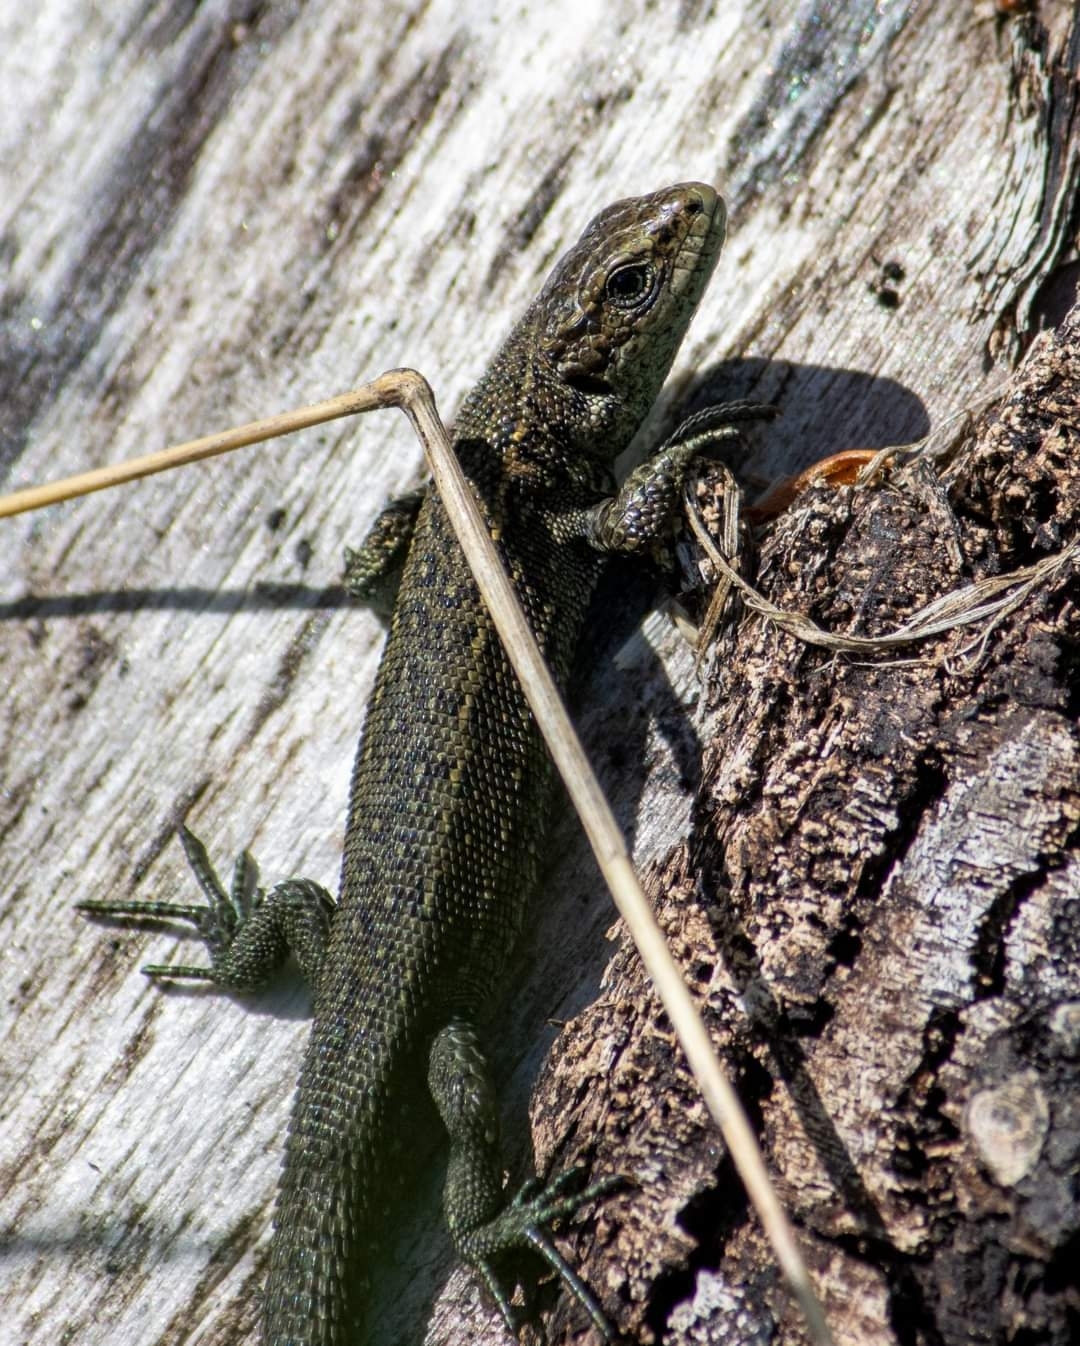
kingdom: Animalia
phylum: Chordata
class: Squamata
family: Lacertidae
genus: Zootoca
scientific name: Zootoca vivipara
